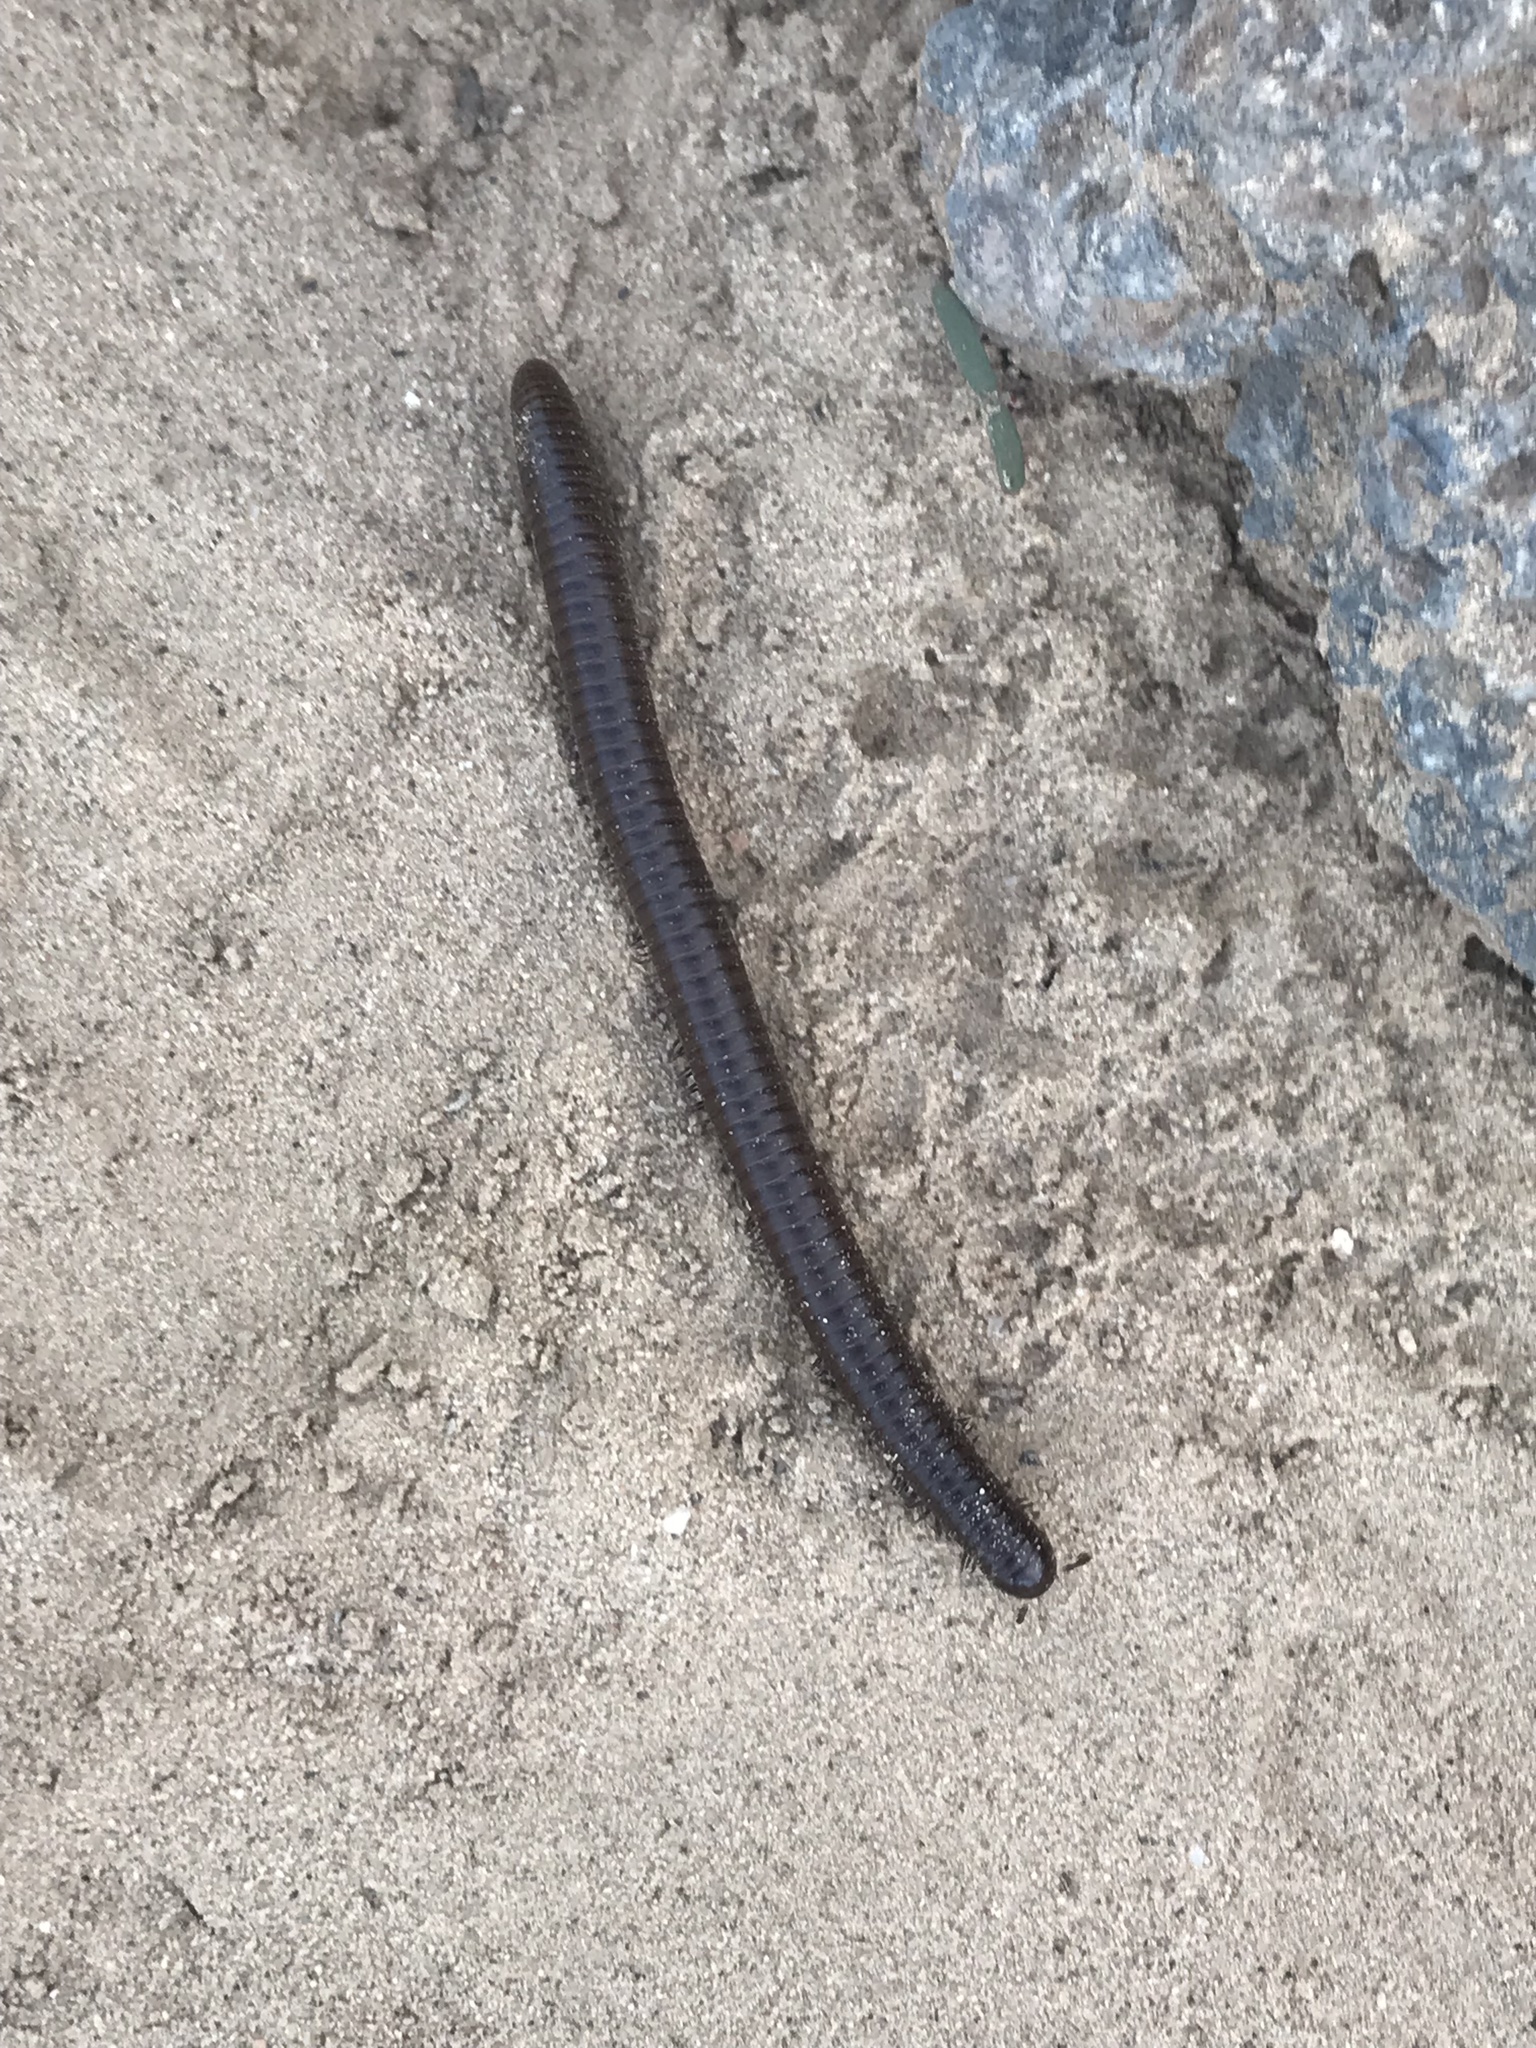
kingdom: Animalia
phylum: Arthropoda
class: Diplopoda
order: Spirostreptida
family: Spirostreptidae
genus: Orthoporus
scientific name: Orthoporus ornatus
